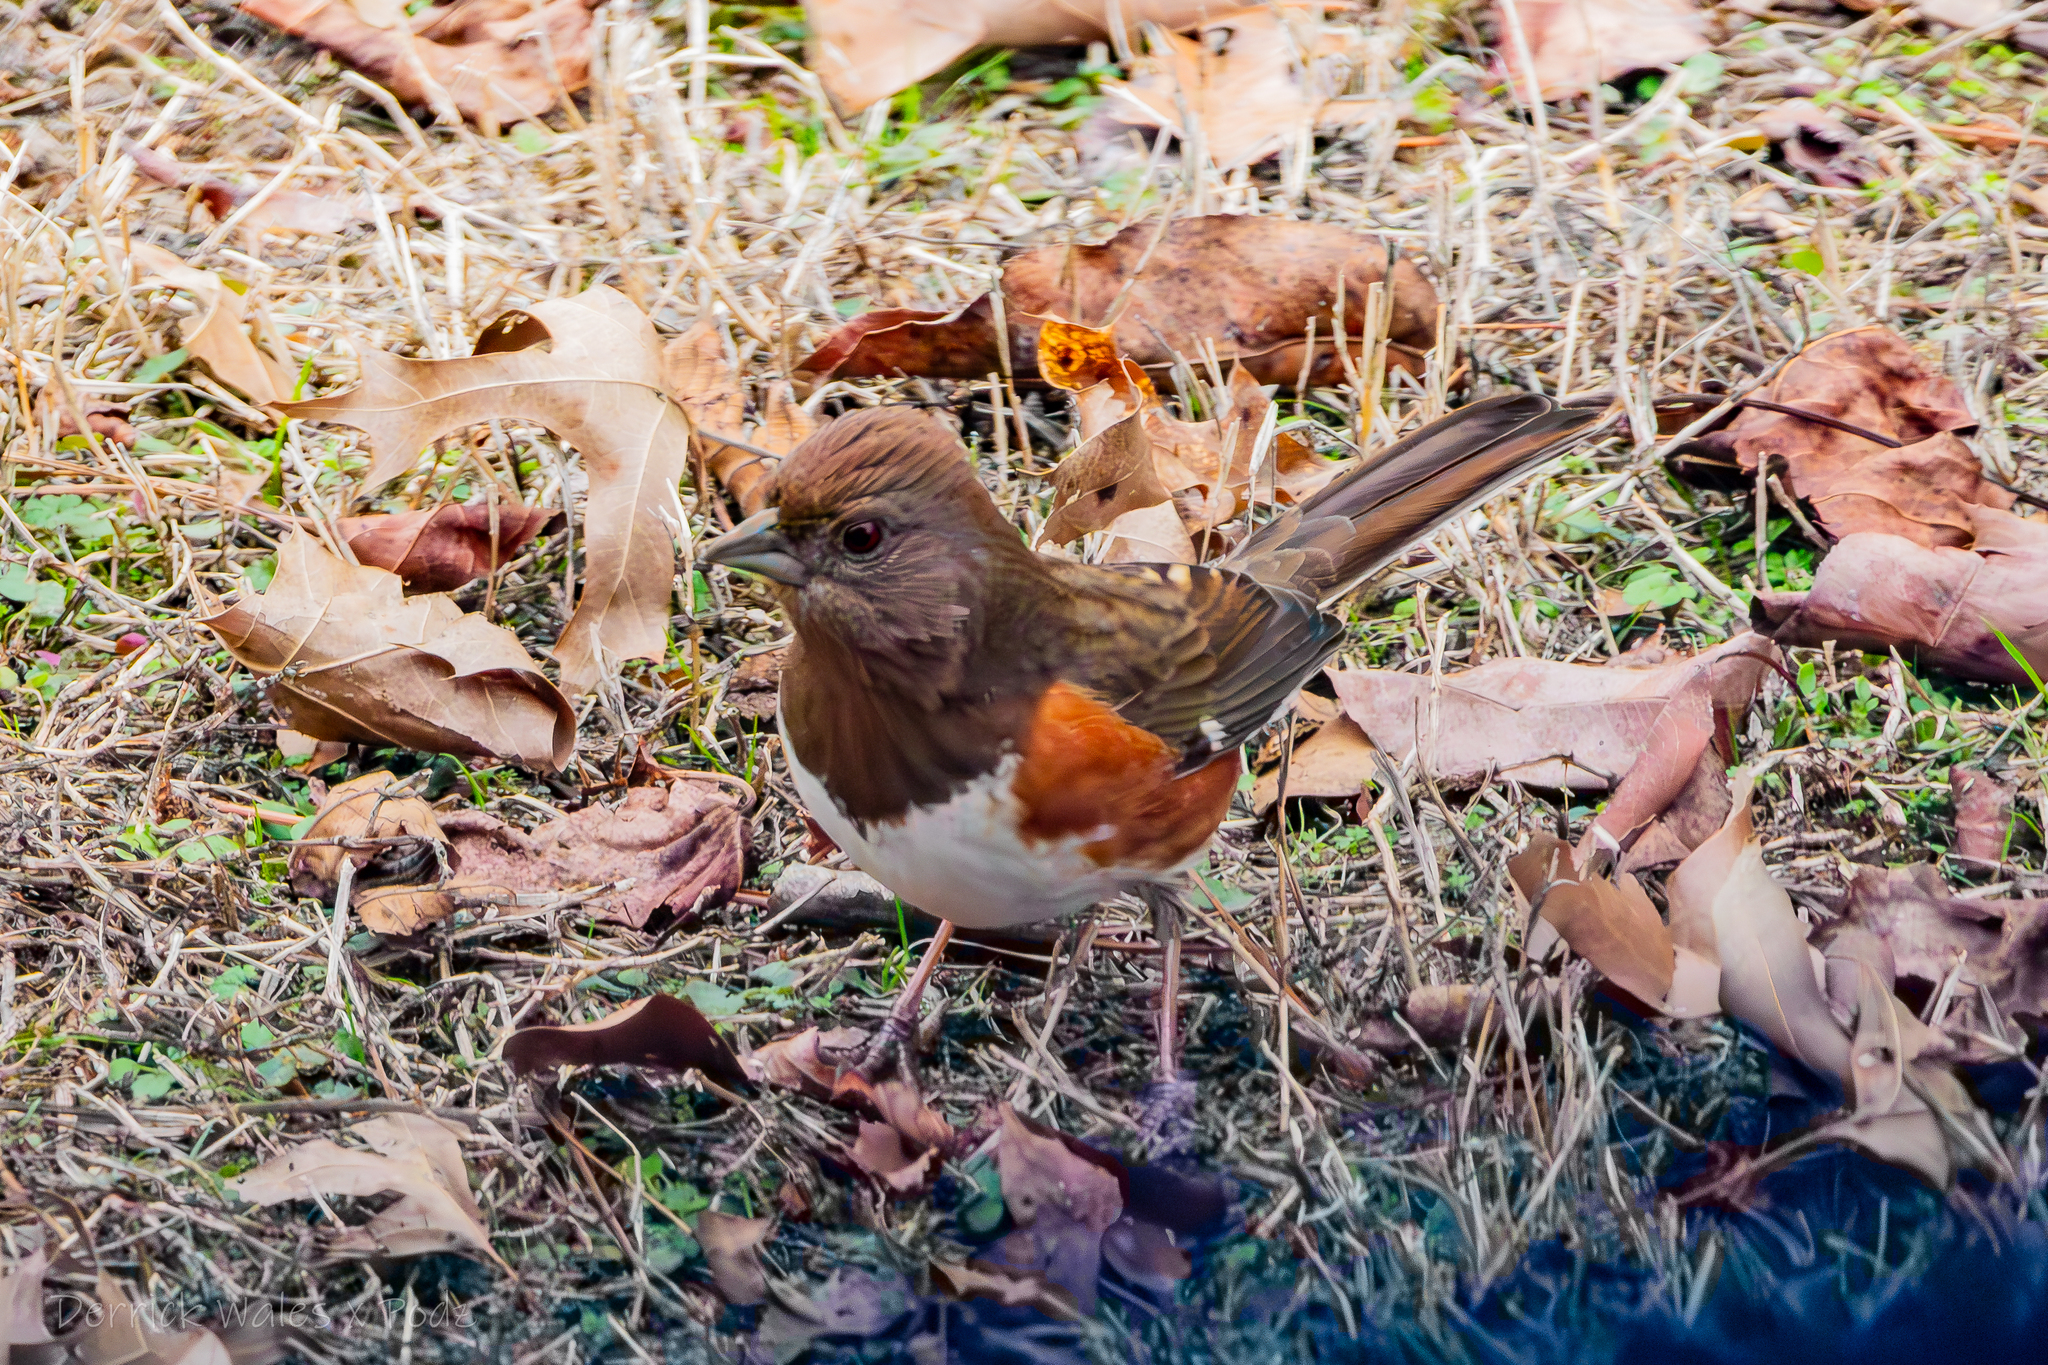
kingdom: Animalia
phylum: Chordata
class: Aves
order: Passeriformes
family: Passerellidae
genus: Pipilo
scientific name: Pipilo erythrophthalmus
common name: Eastern towhee
